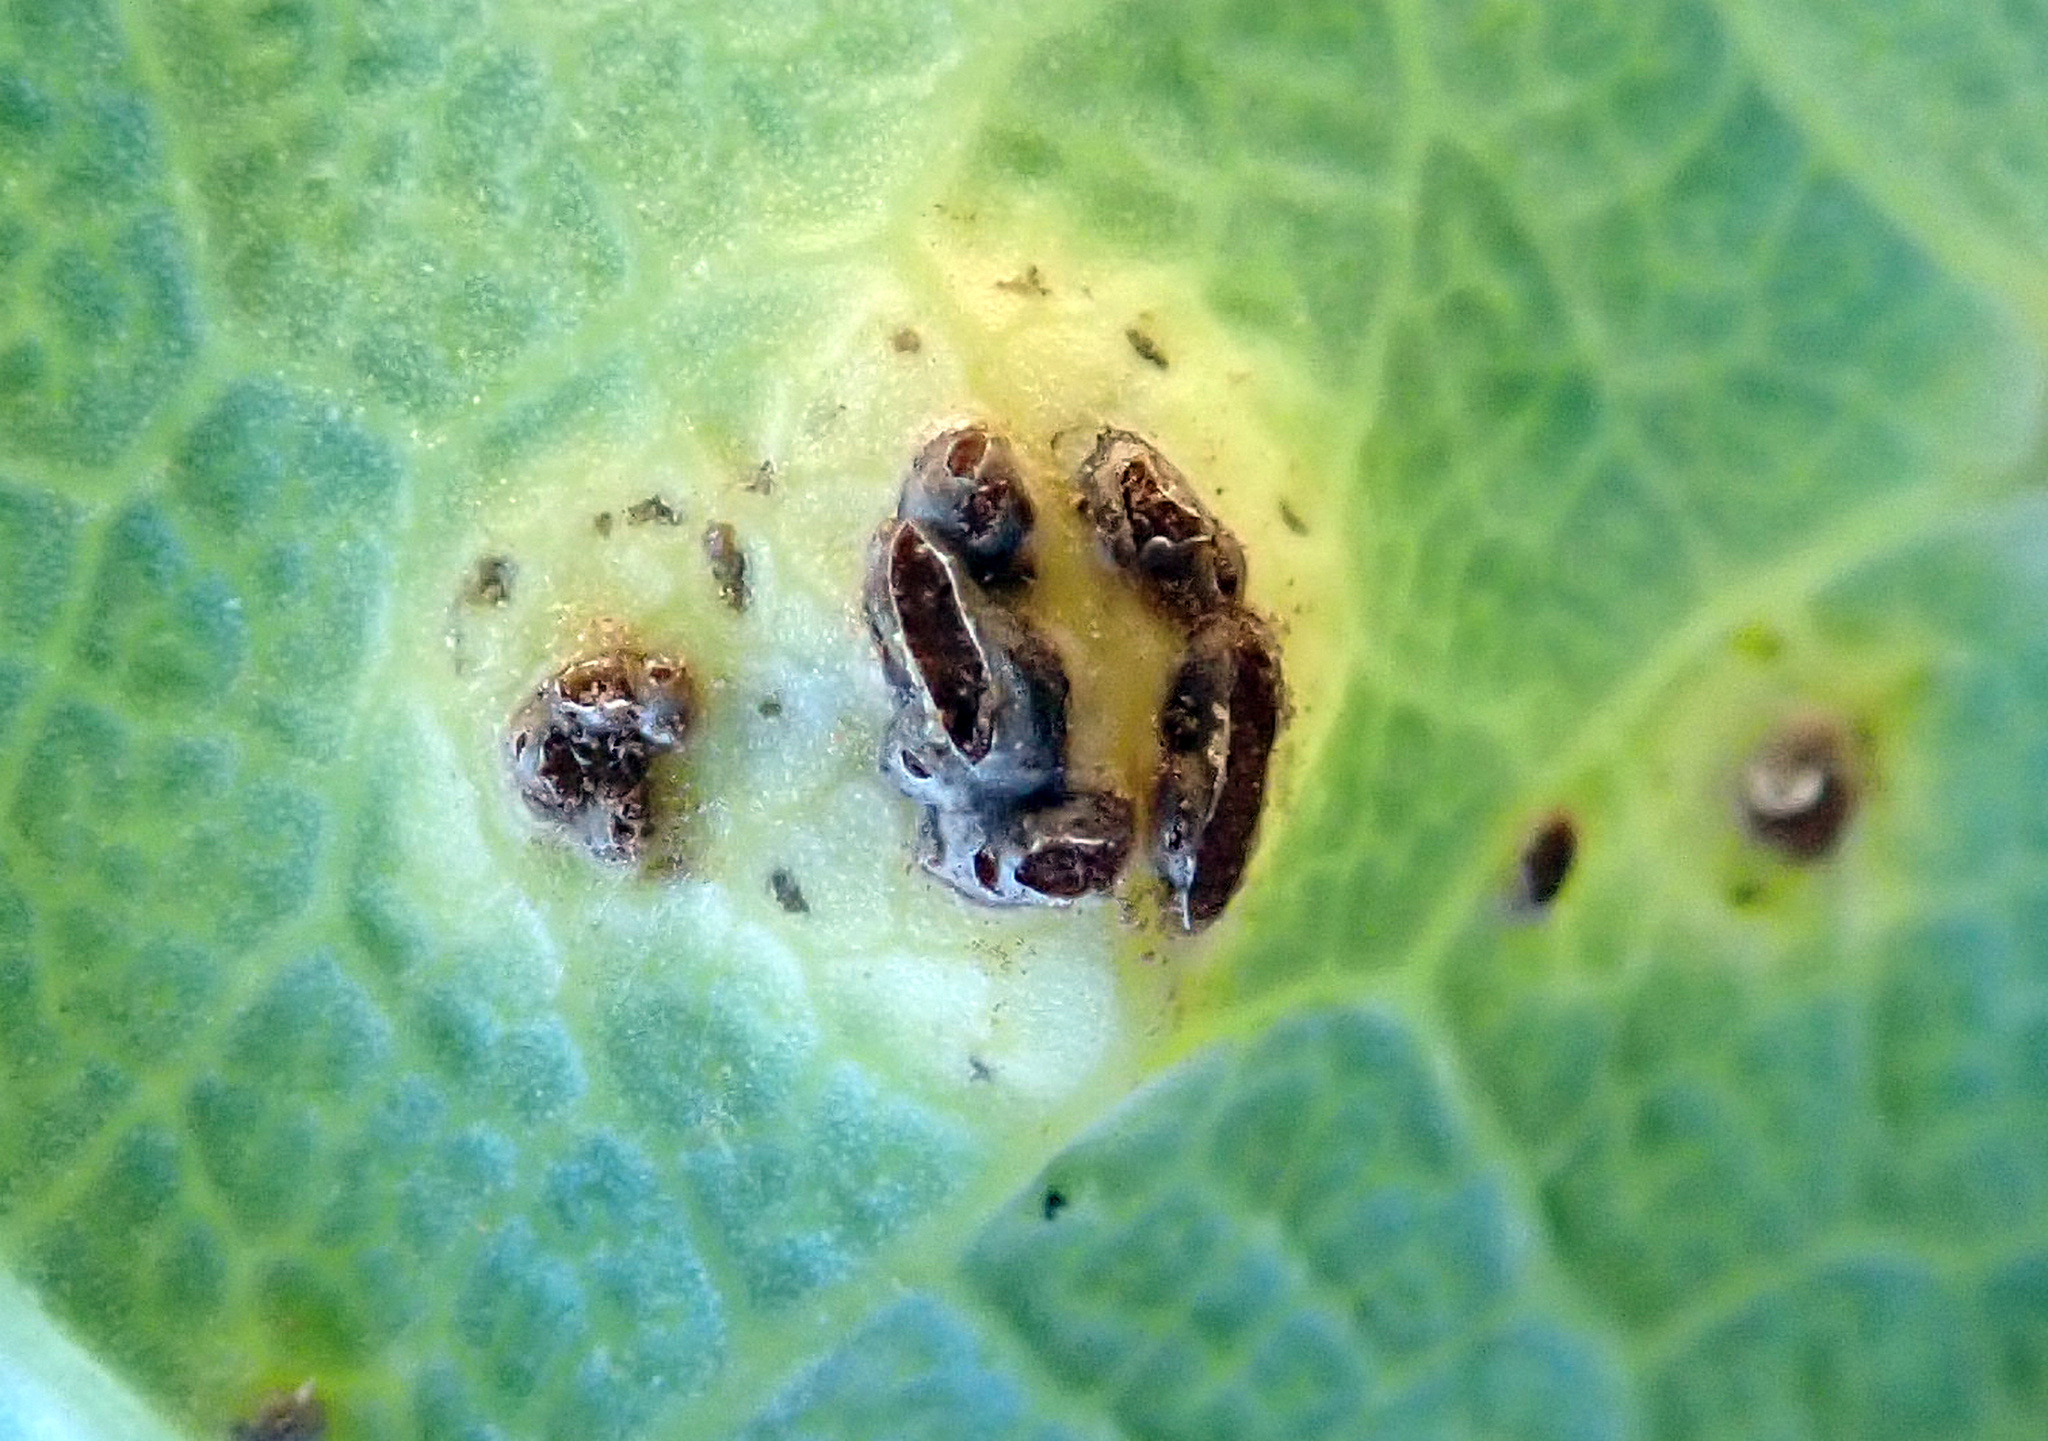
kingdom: Fungi
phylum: Basidiomycota
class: Pucciniomycetes
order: Pucciniales
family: Pucciniaceae
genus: Puccinia
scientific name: Puccinia embergeriae
